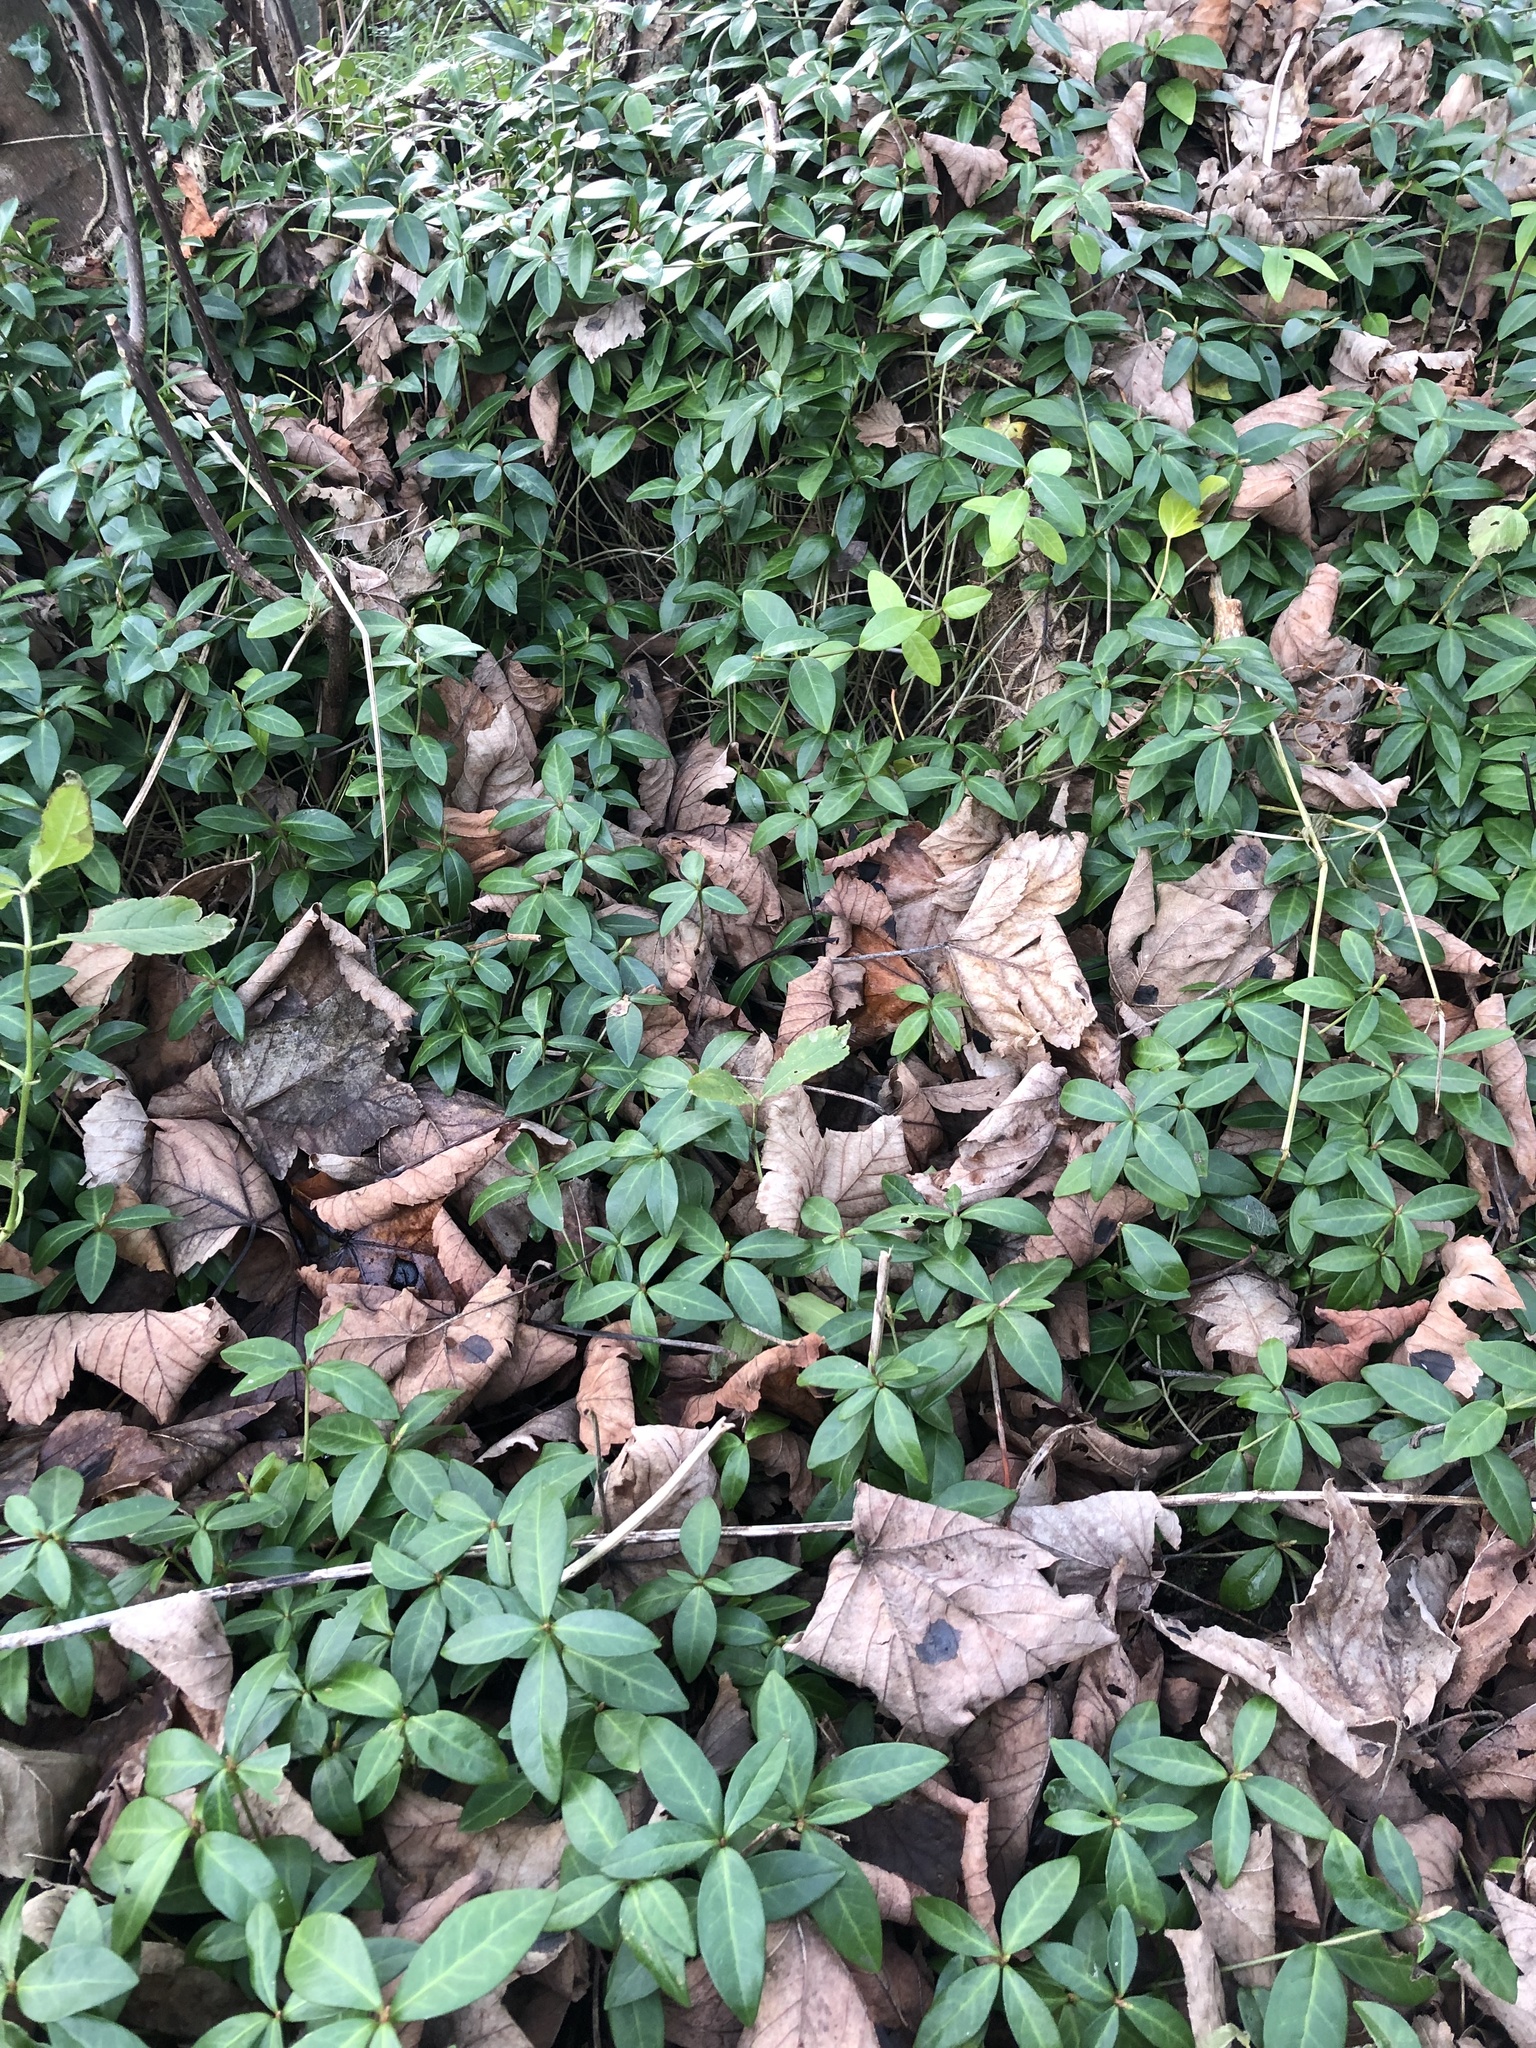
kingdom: Plantae
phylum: Tracheophyta
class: Magnoliopsida
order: Gentianales
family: Apocynaceae
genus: Vinca
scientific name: Vinca minor
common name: Lesser periwinkle
